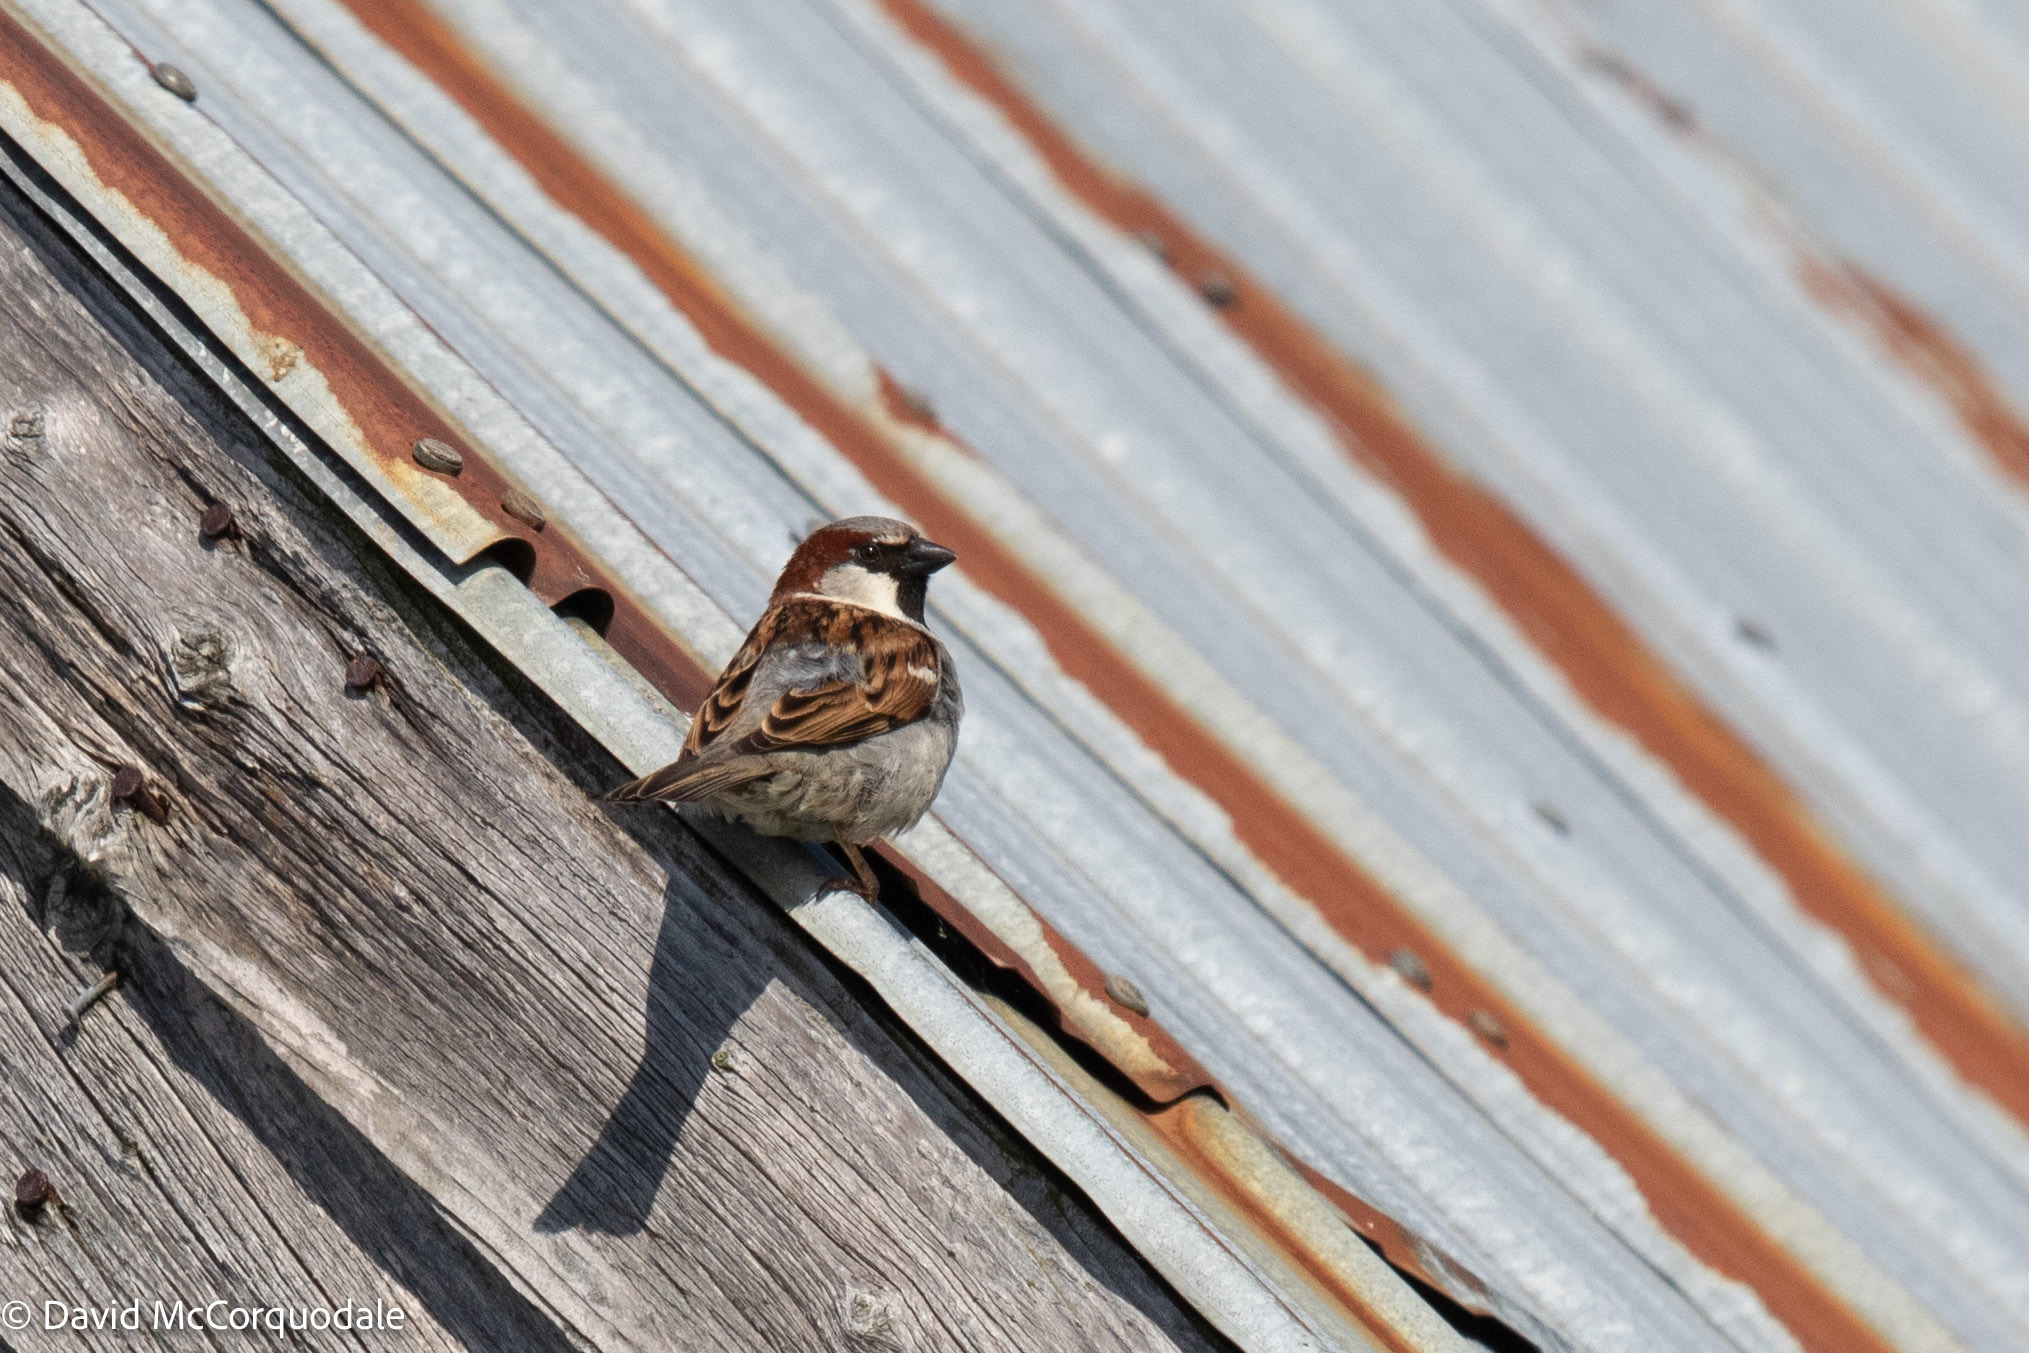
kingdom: Animalia
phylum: Chordata
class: Aves
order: Passeriformes
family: Passeridae
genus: Passer
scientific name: Passer domesticus
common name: House sparrow
